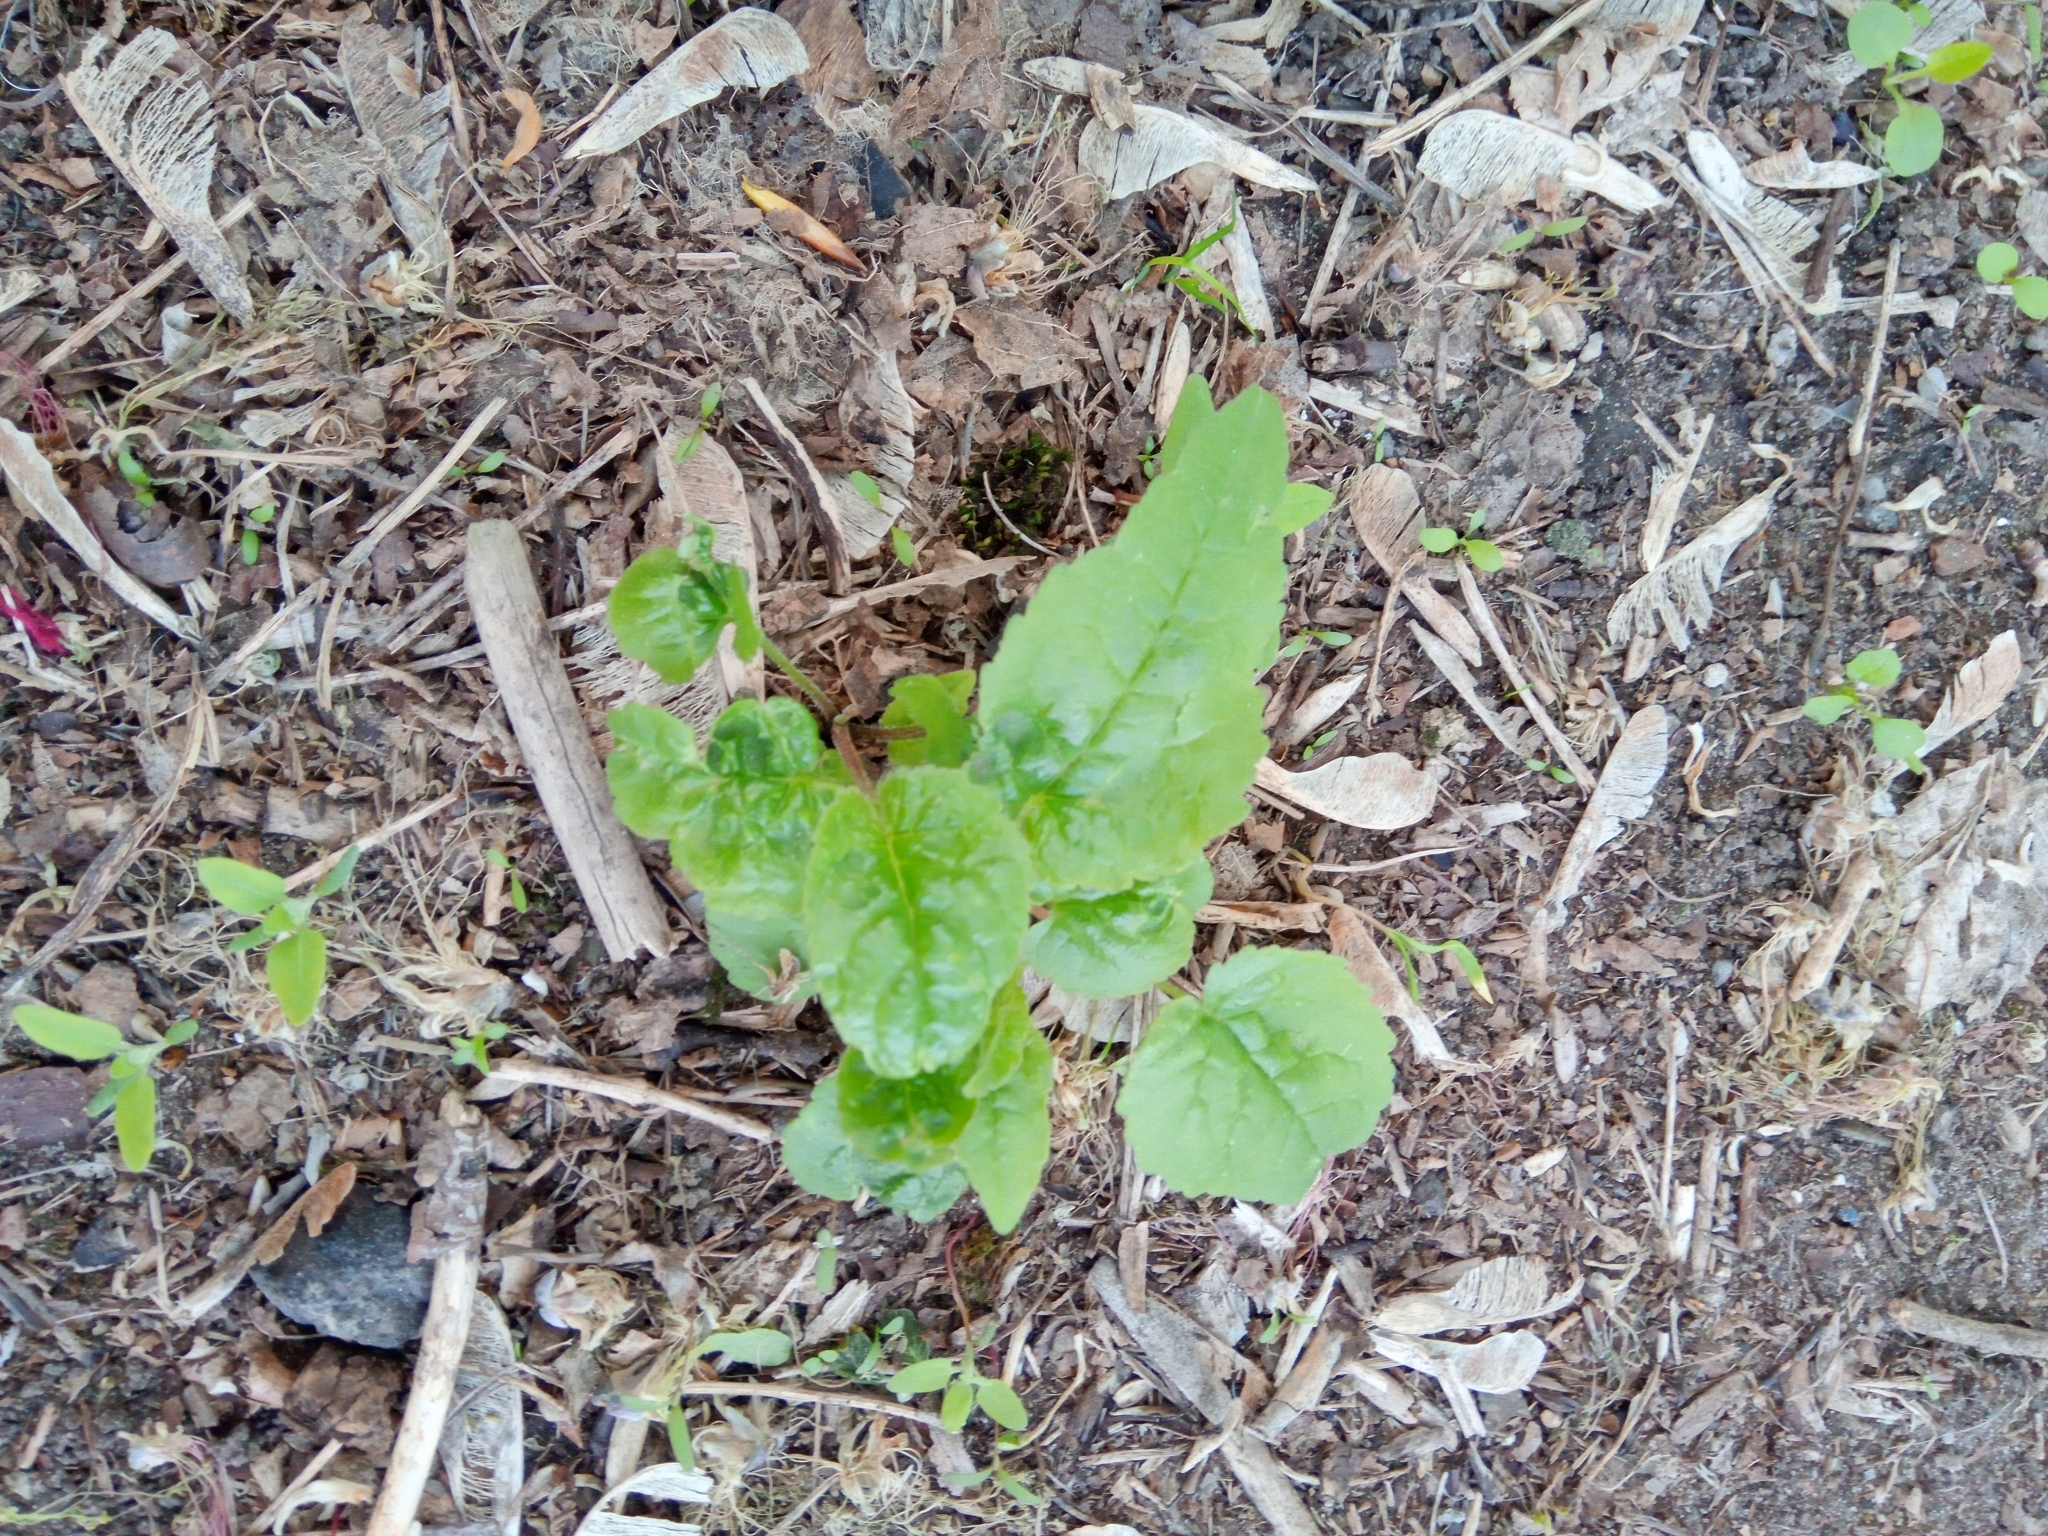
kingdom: Plantae
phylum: Tracheophyta
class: Magnoliopsida
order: Asterales
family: Campanulaceae
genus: Campanula
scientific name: Campanula rapunculoides
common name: Creeping bellflower
